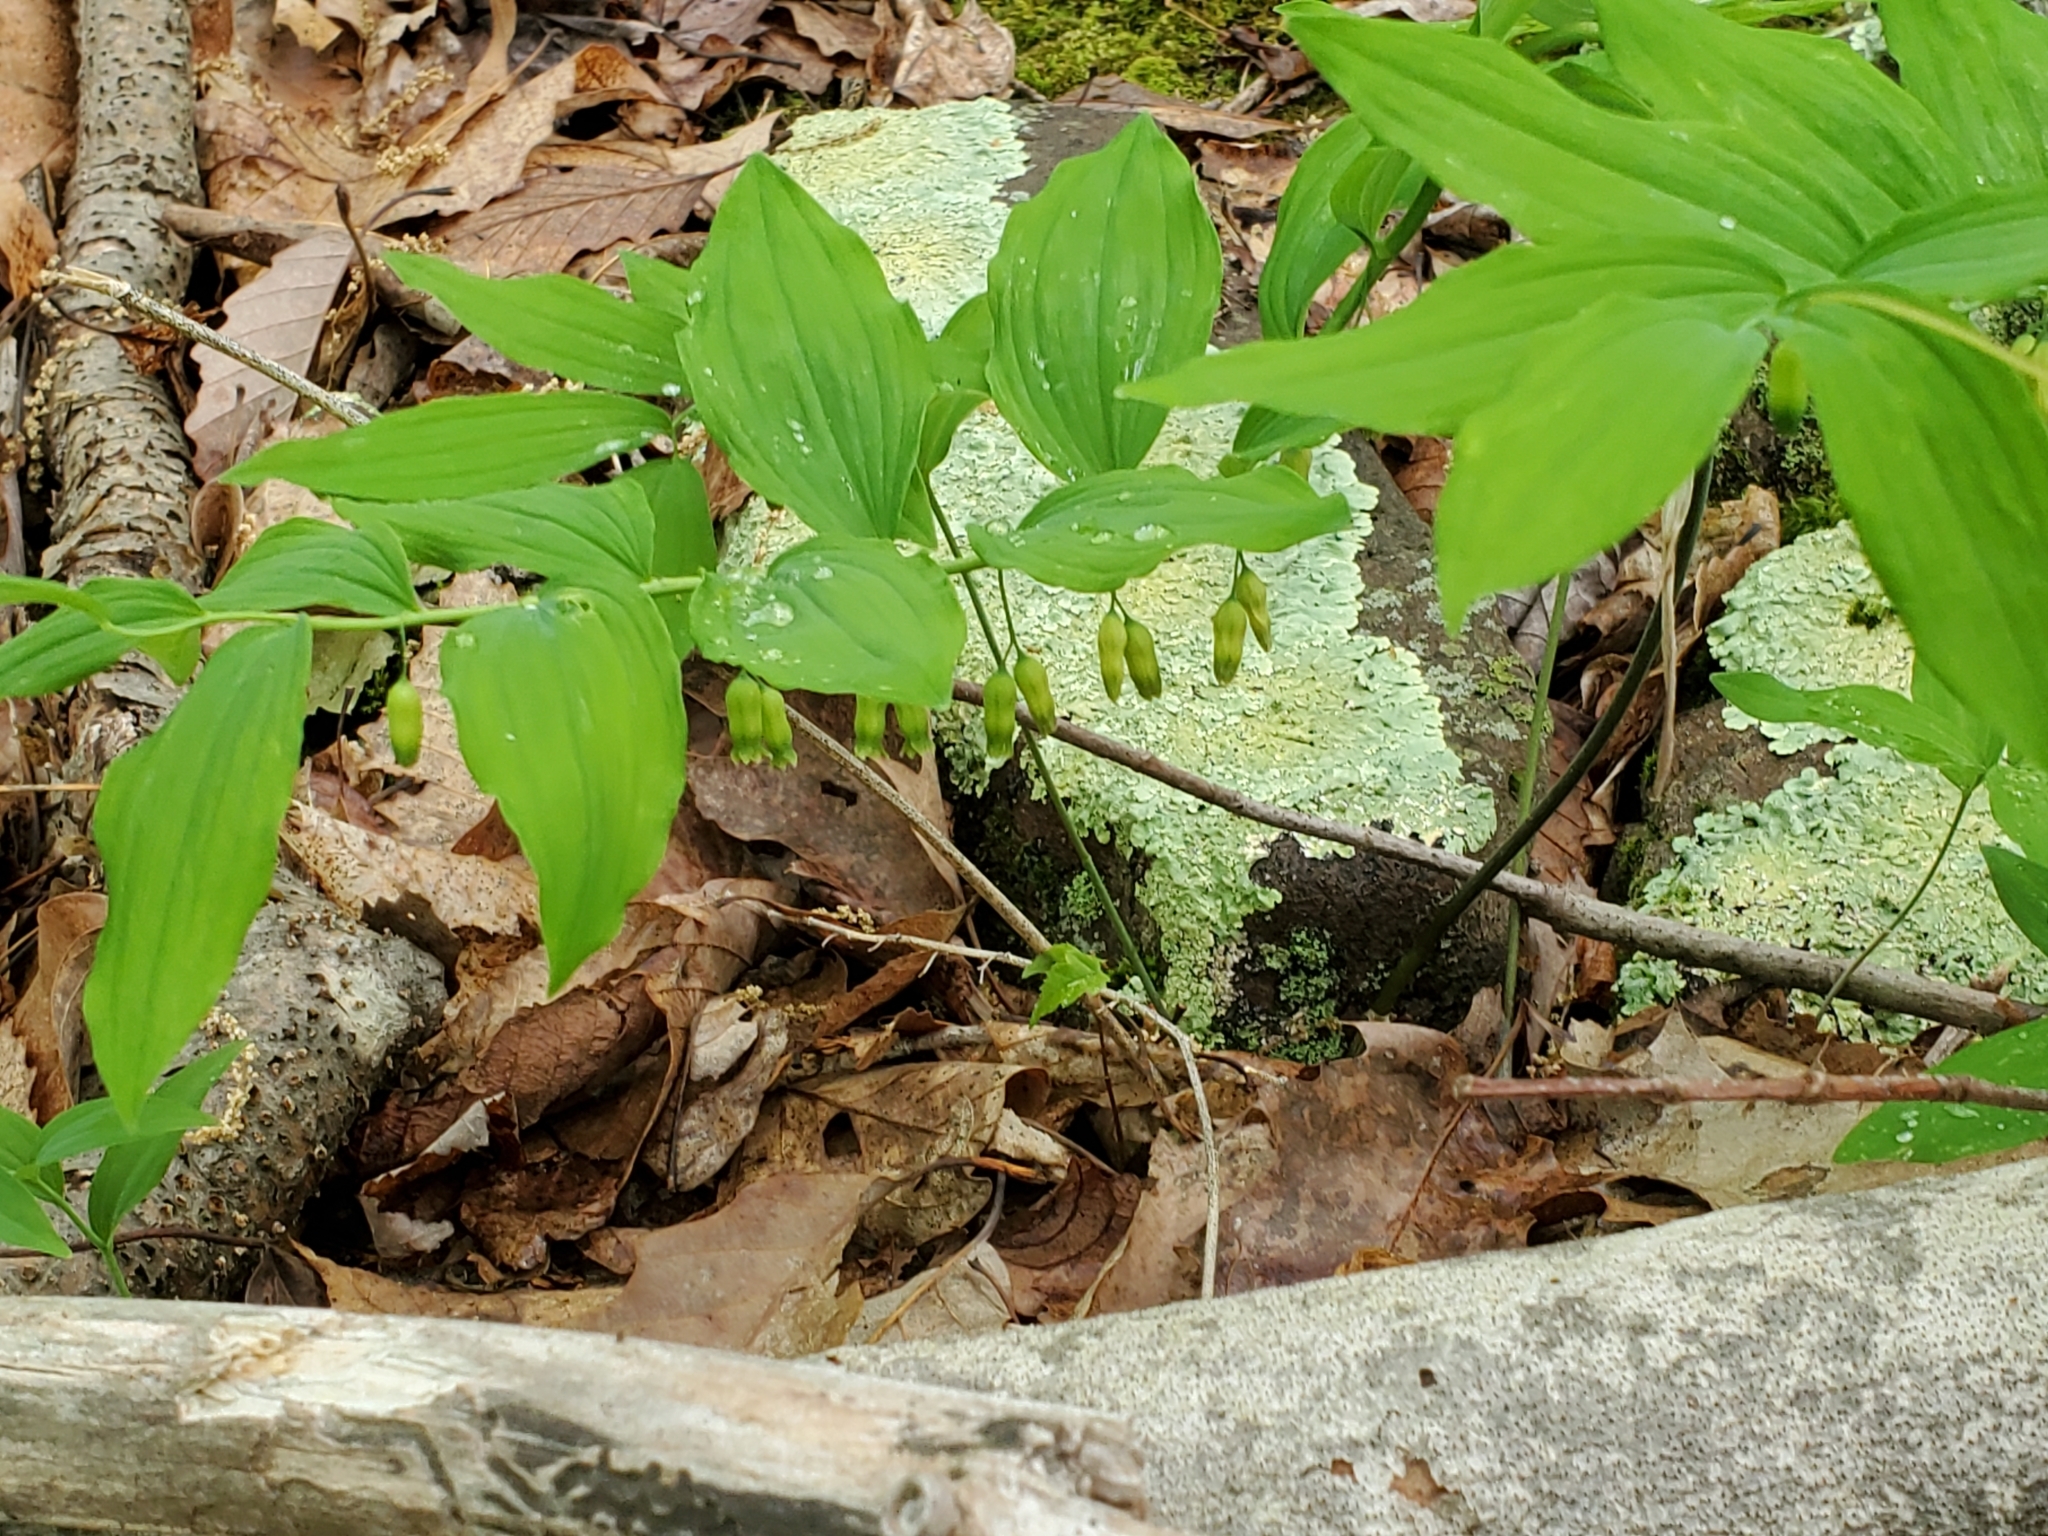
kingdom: Plantae
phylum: Tracheophyta
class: Liliopsida
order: Asparagales
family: Asparagaceae
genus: Polygonatum
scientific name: Polygonatum pubescens
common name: Downy solomon's seal
